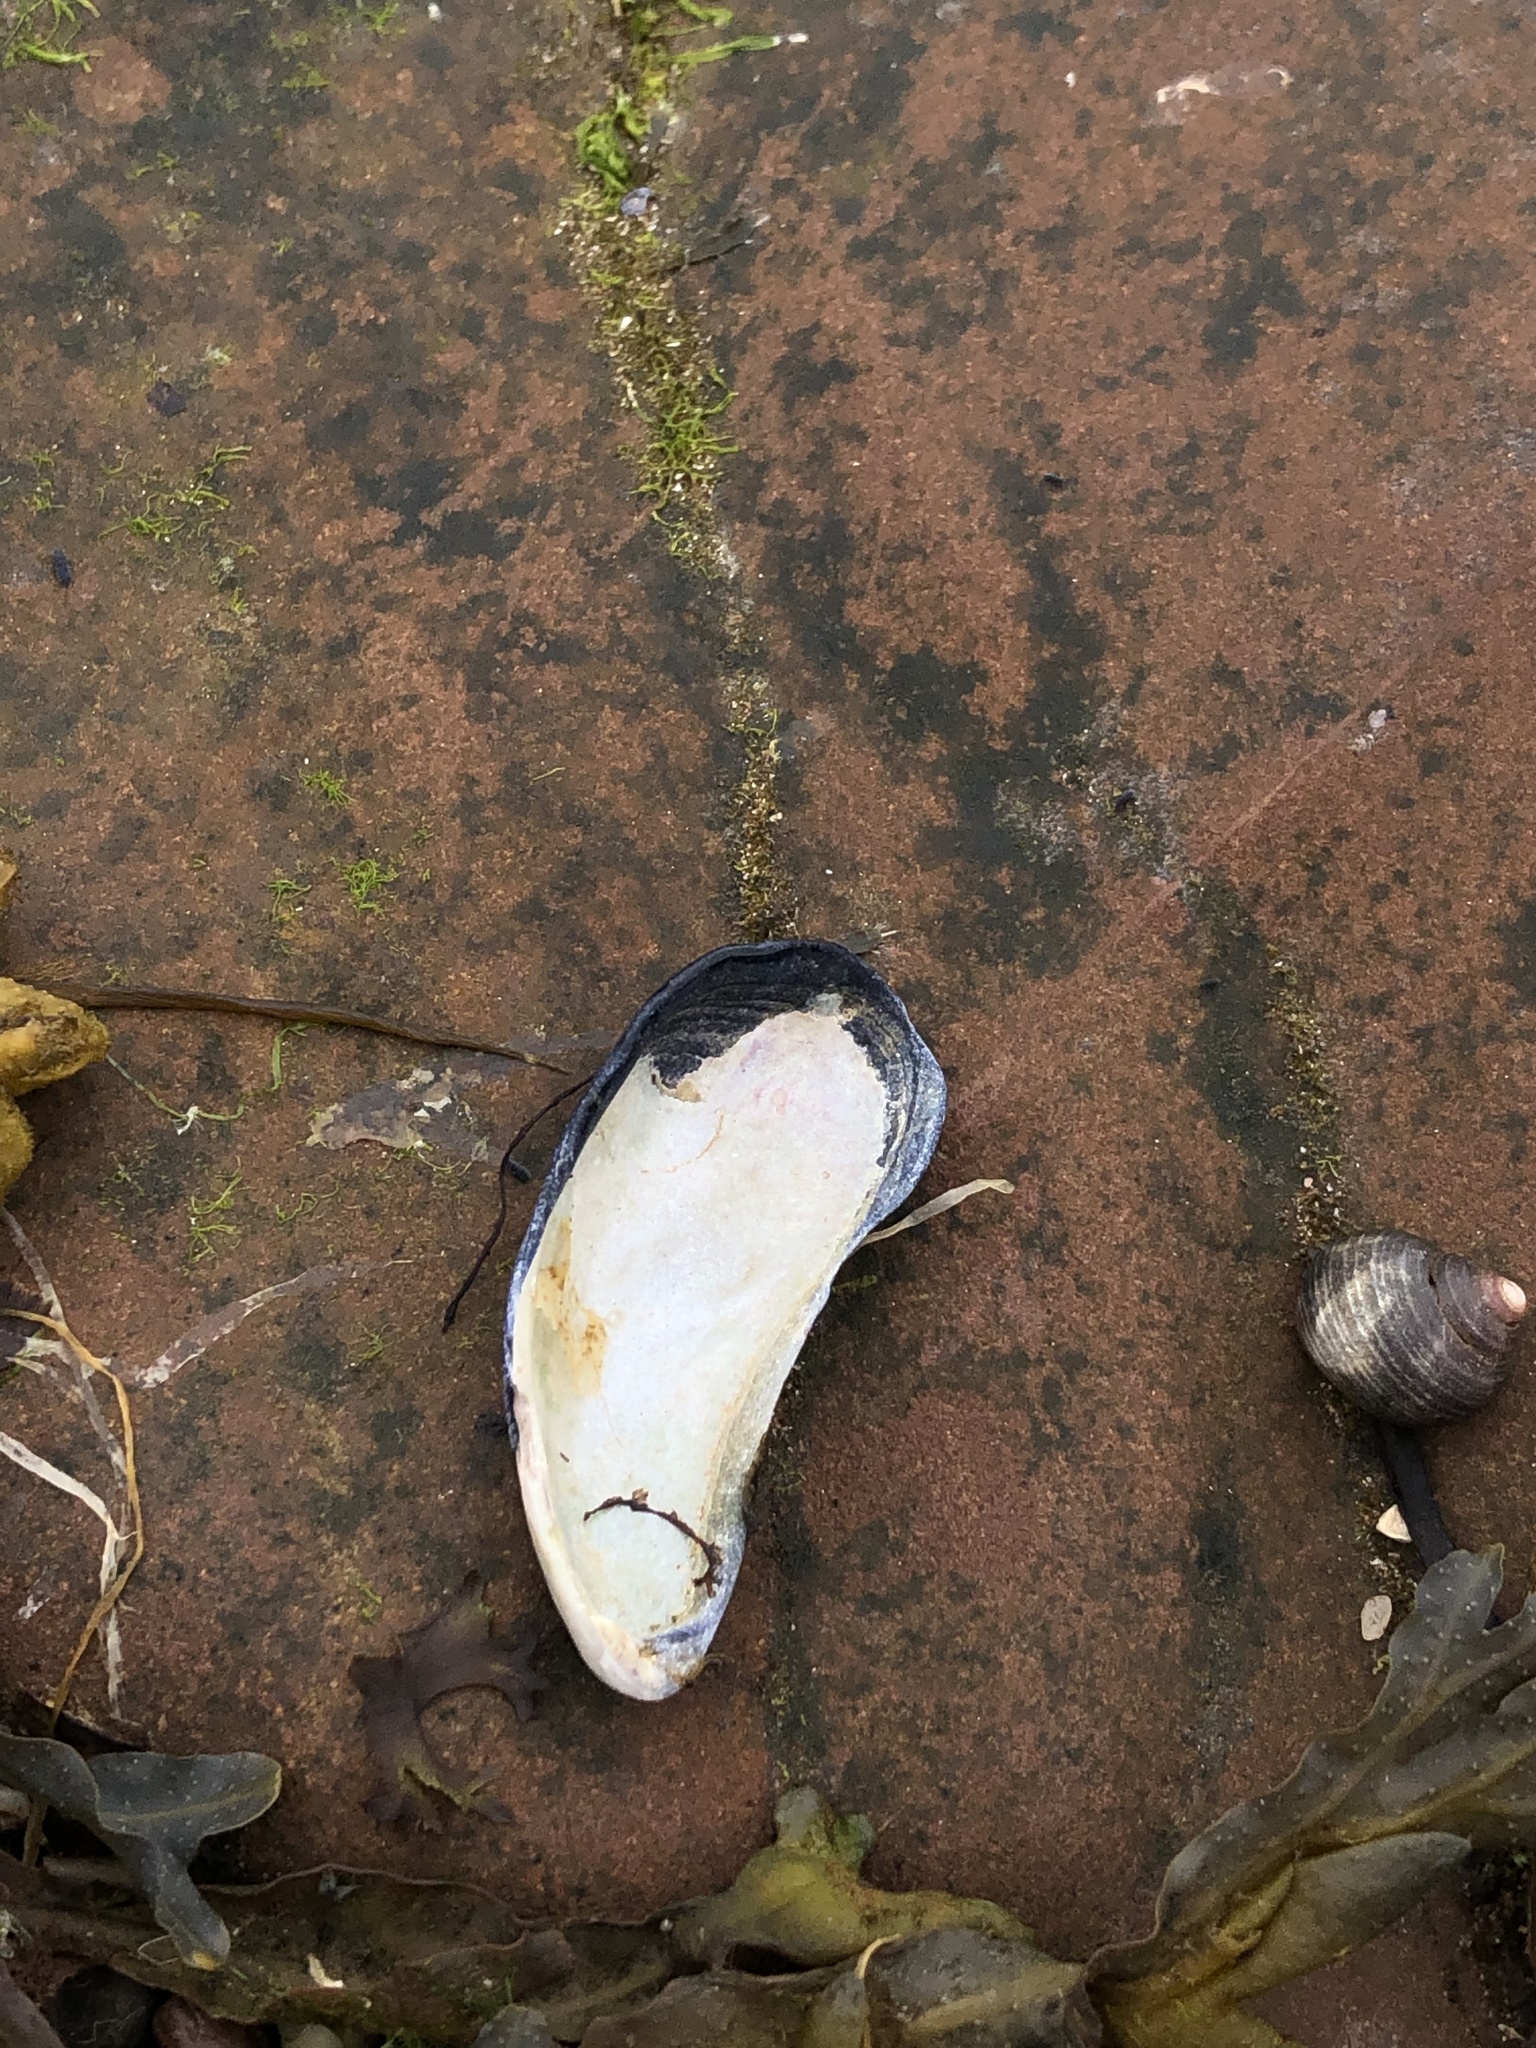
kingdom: Animalia
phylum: Mollusca
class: Bivalvia
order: Mytilida
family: Mytilidae
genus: Mytilus
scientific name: Mytilus edulis
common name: Blue mussel
